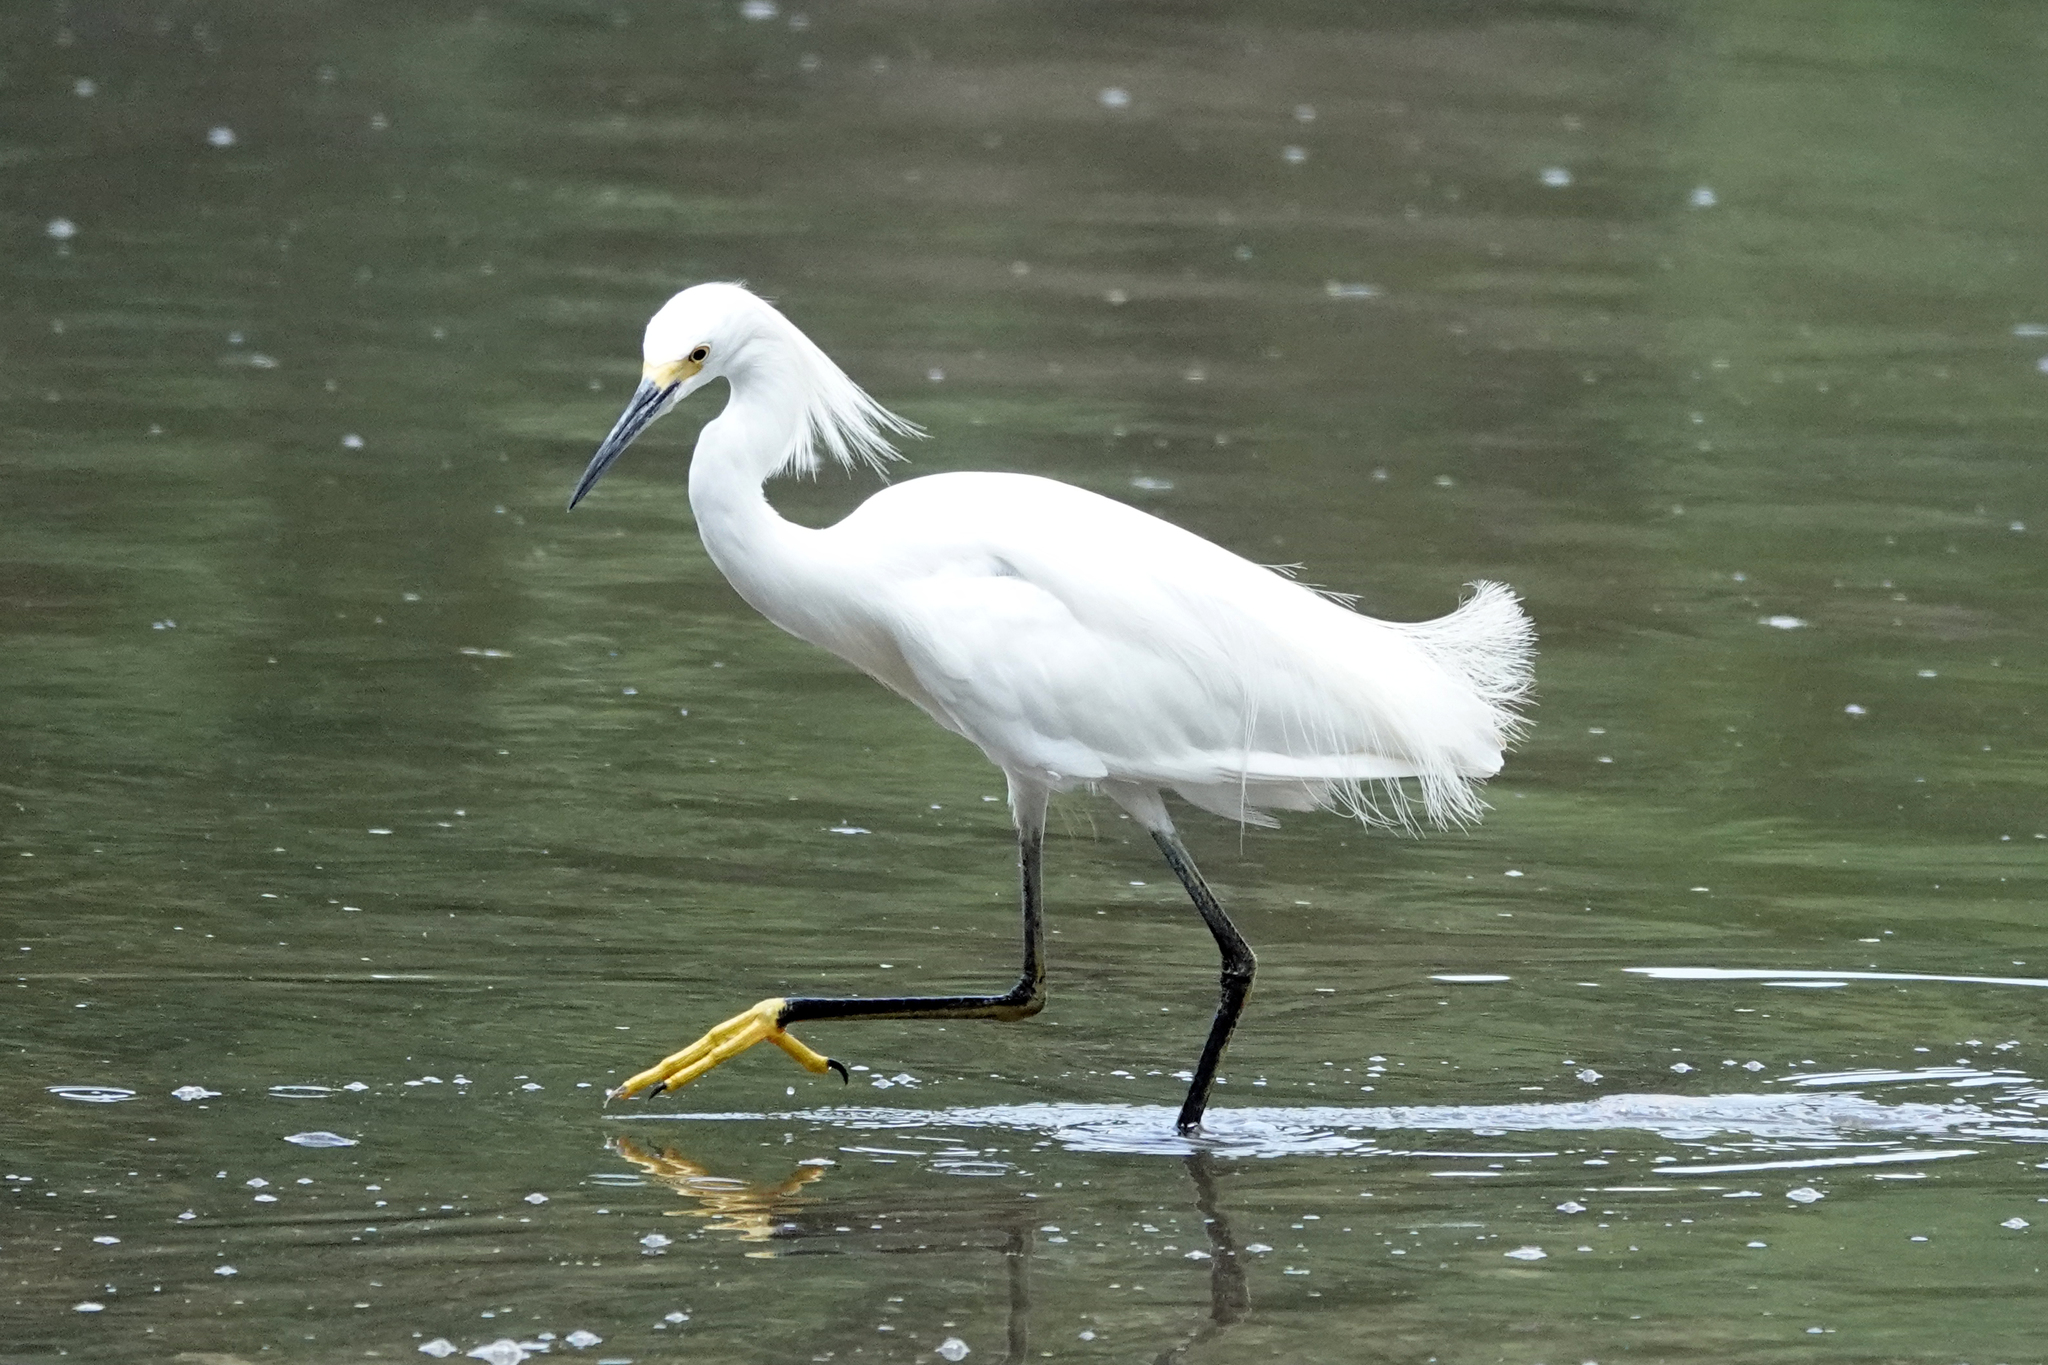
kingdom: Animalia
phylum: Chordata
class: Aves
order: Pelecaniformes
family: Ardeidae
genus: Egretta
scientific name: Egretta thula
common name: Snowy egret
